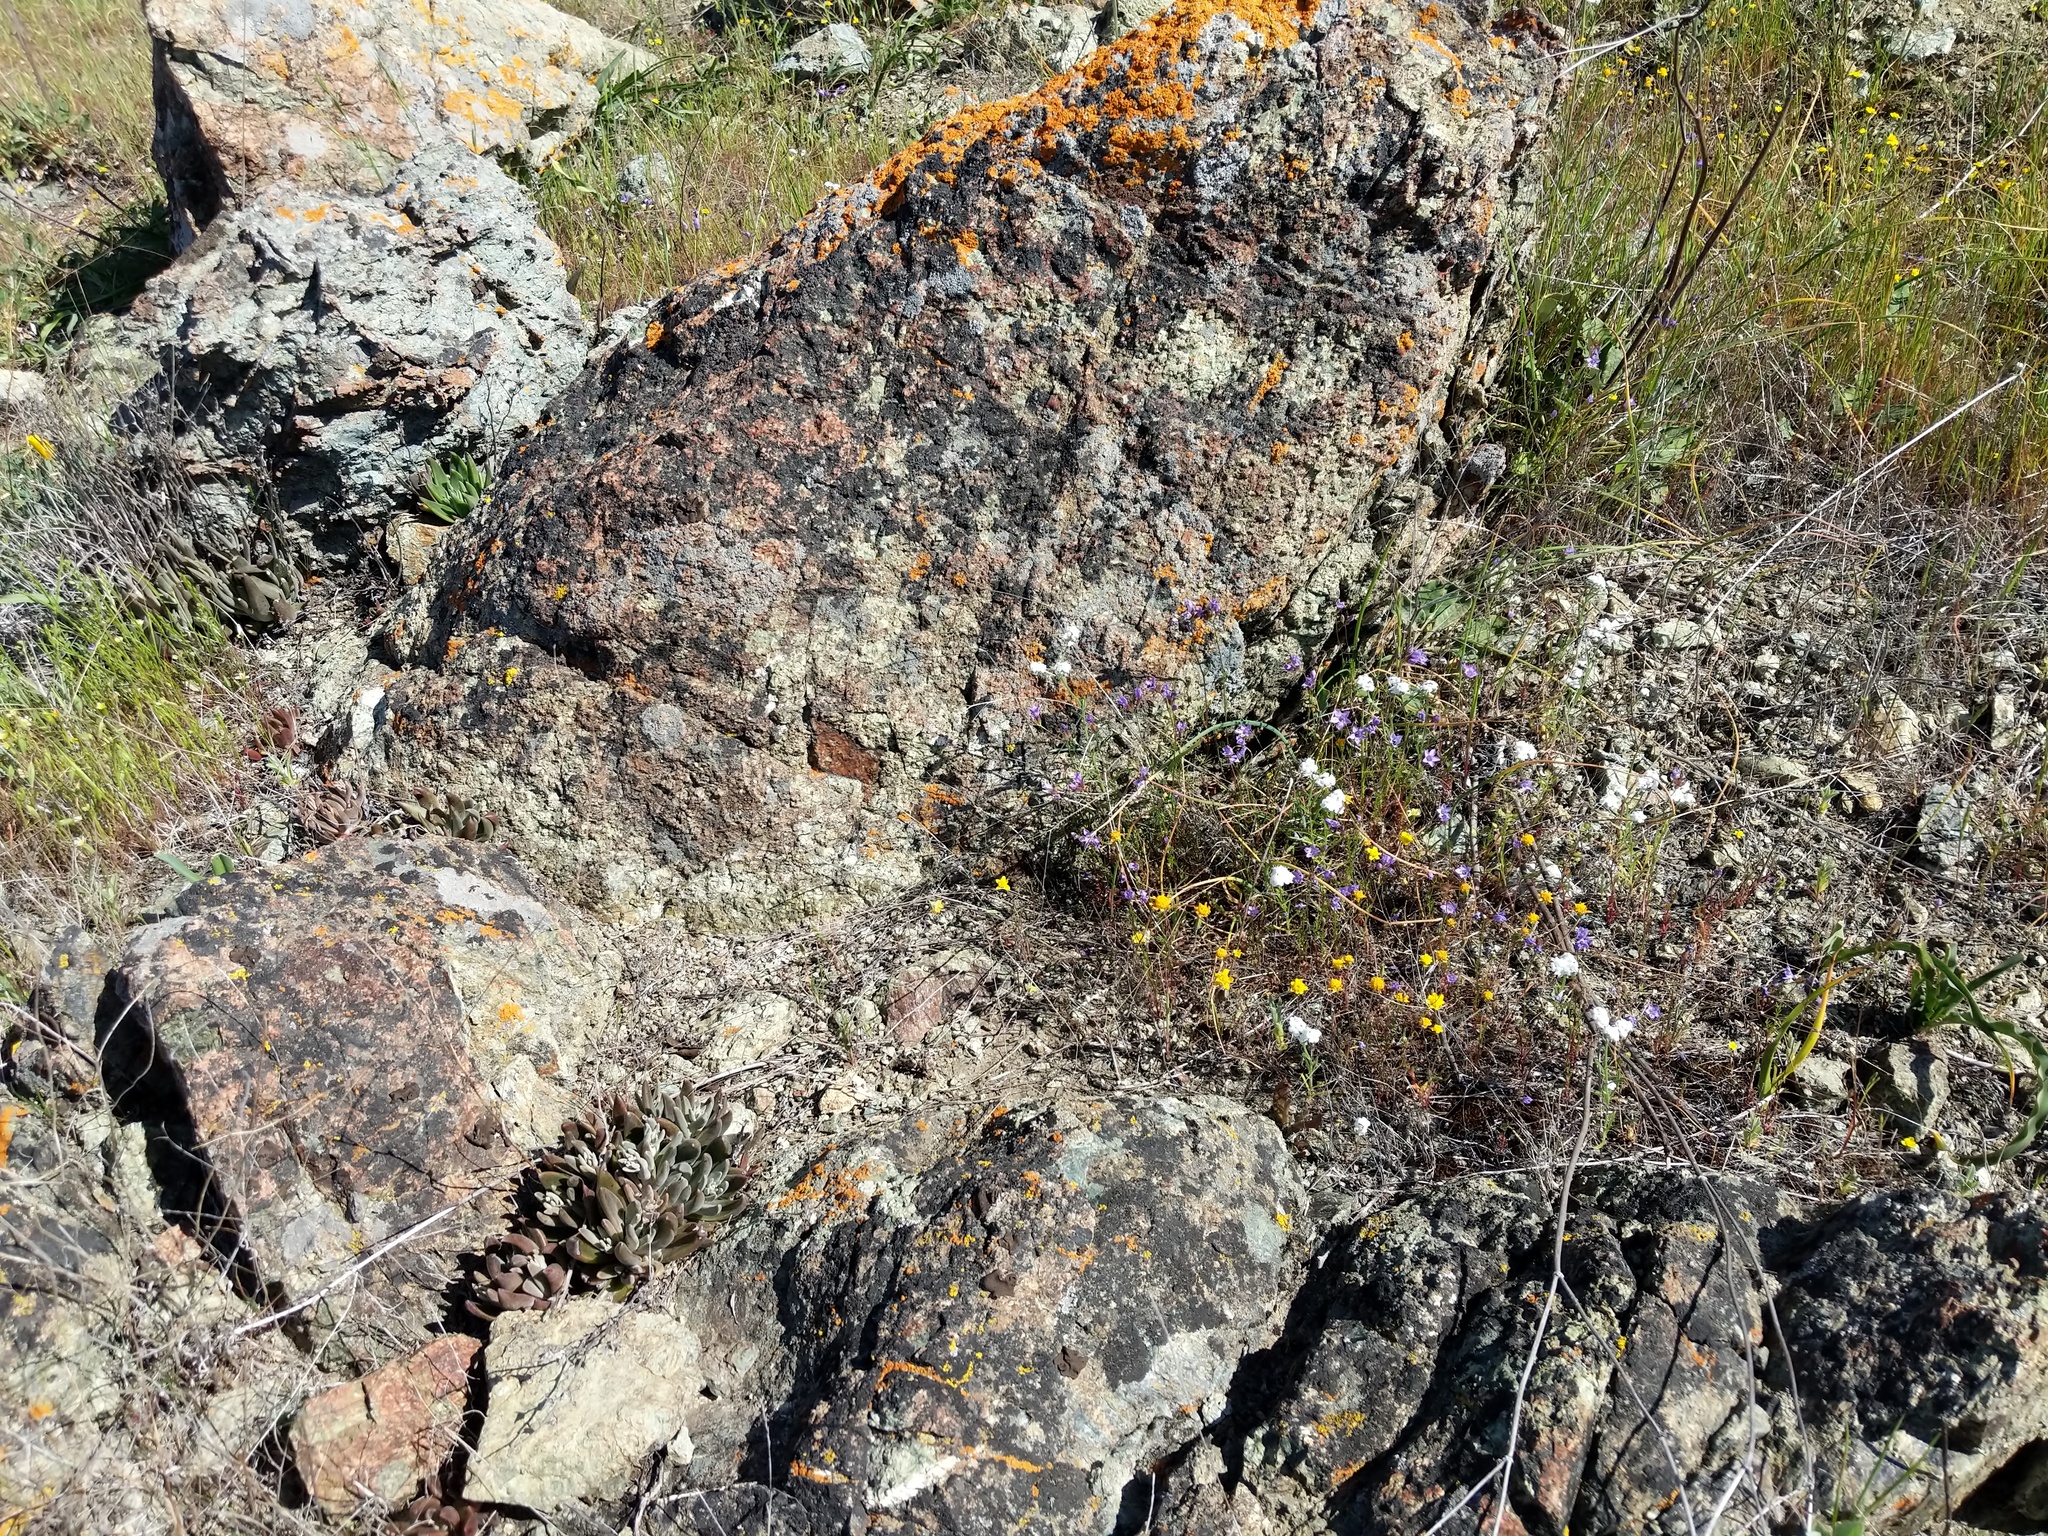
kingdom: Plantae
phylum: Tracheophyta
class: Magnoliopsida
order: Saxifragales
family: Crassulaceae
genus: Dudleya
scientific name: Dudleya abramsii
